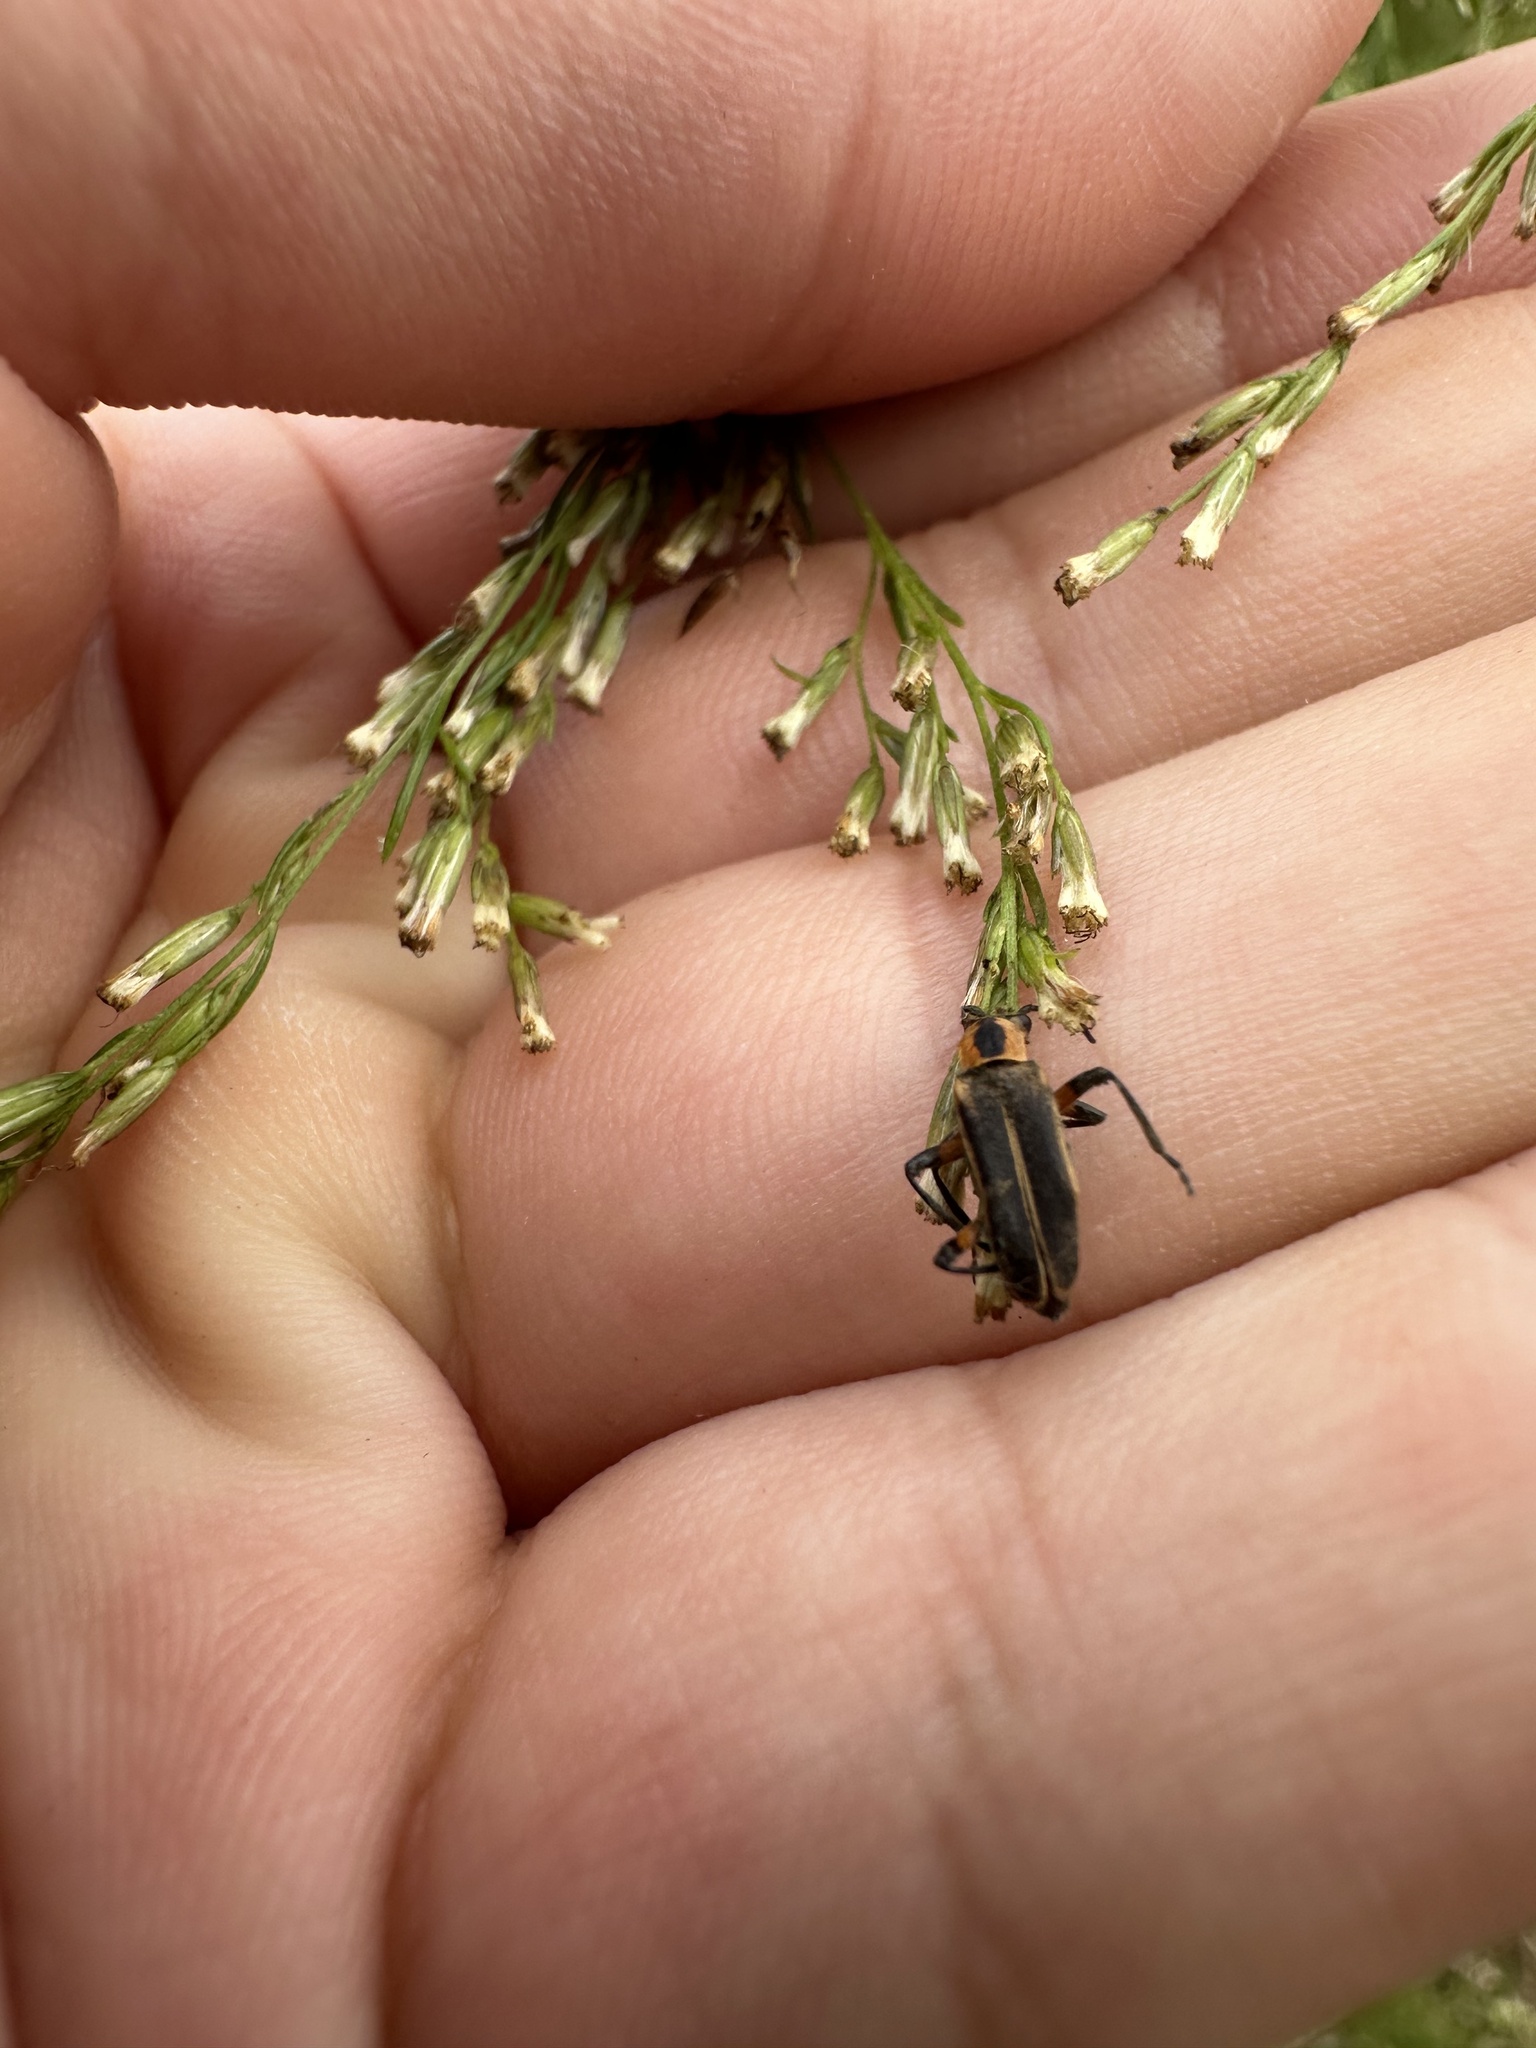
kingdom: Animalia
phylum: Arthropoda
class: Insecta
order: Coleoptera
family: Cantharidae
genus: Chauliognathus
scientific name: Chauliognathus marginatus
